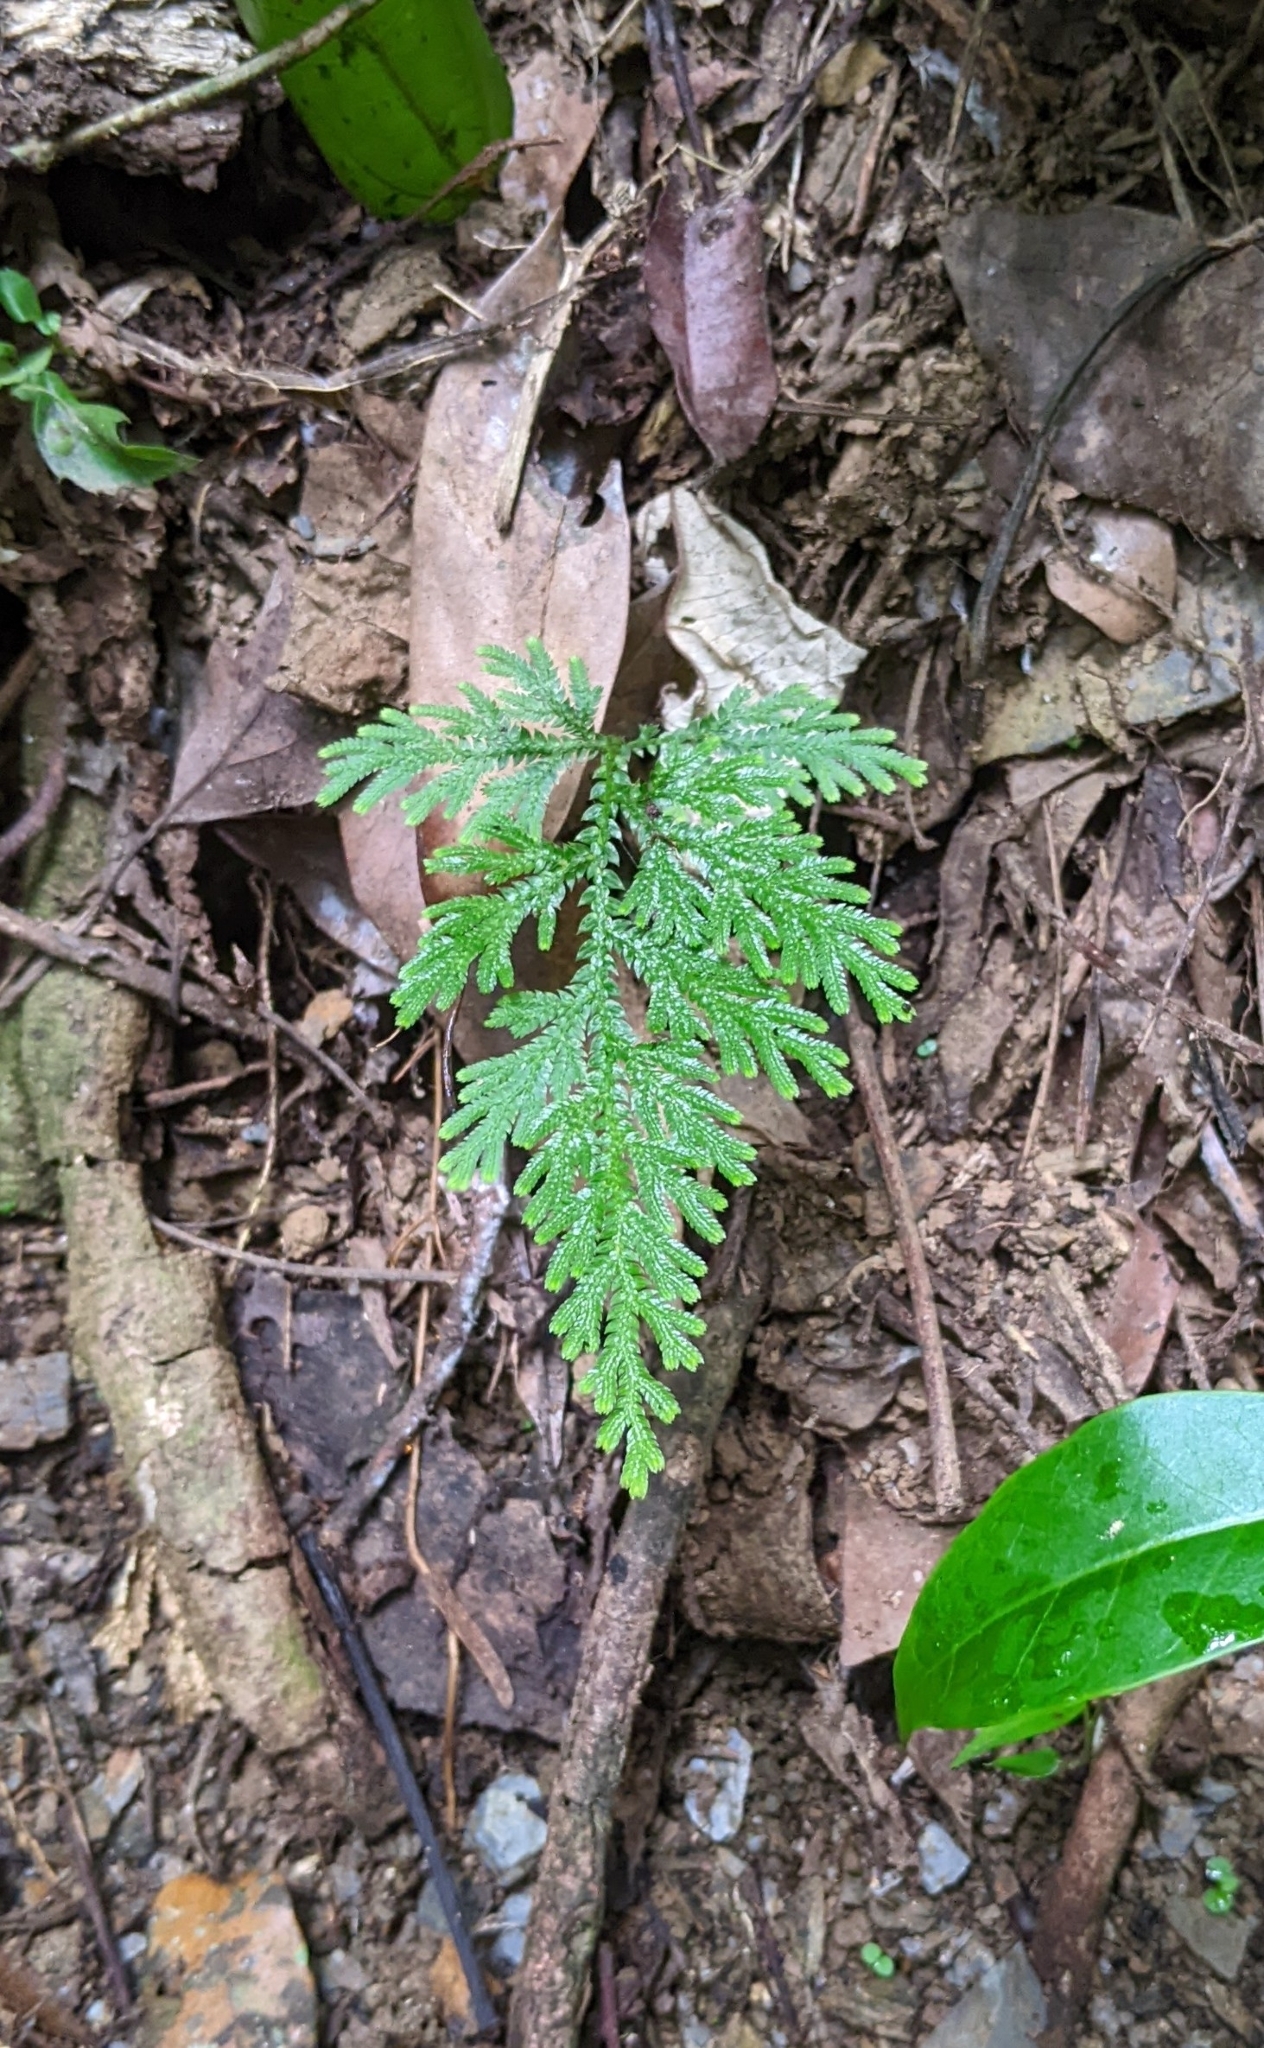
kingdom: Plantae
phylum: Tracheophyta
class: Lycopodiopsida
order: Selaginellales
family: Selaginellaceae
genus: Selaginella
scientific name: Selaginella moellendorffii
